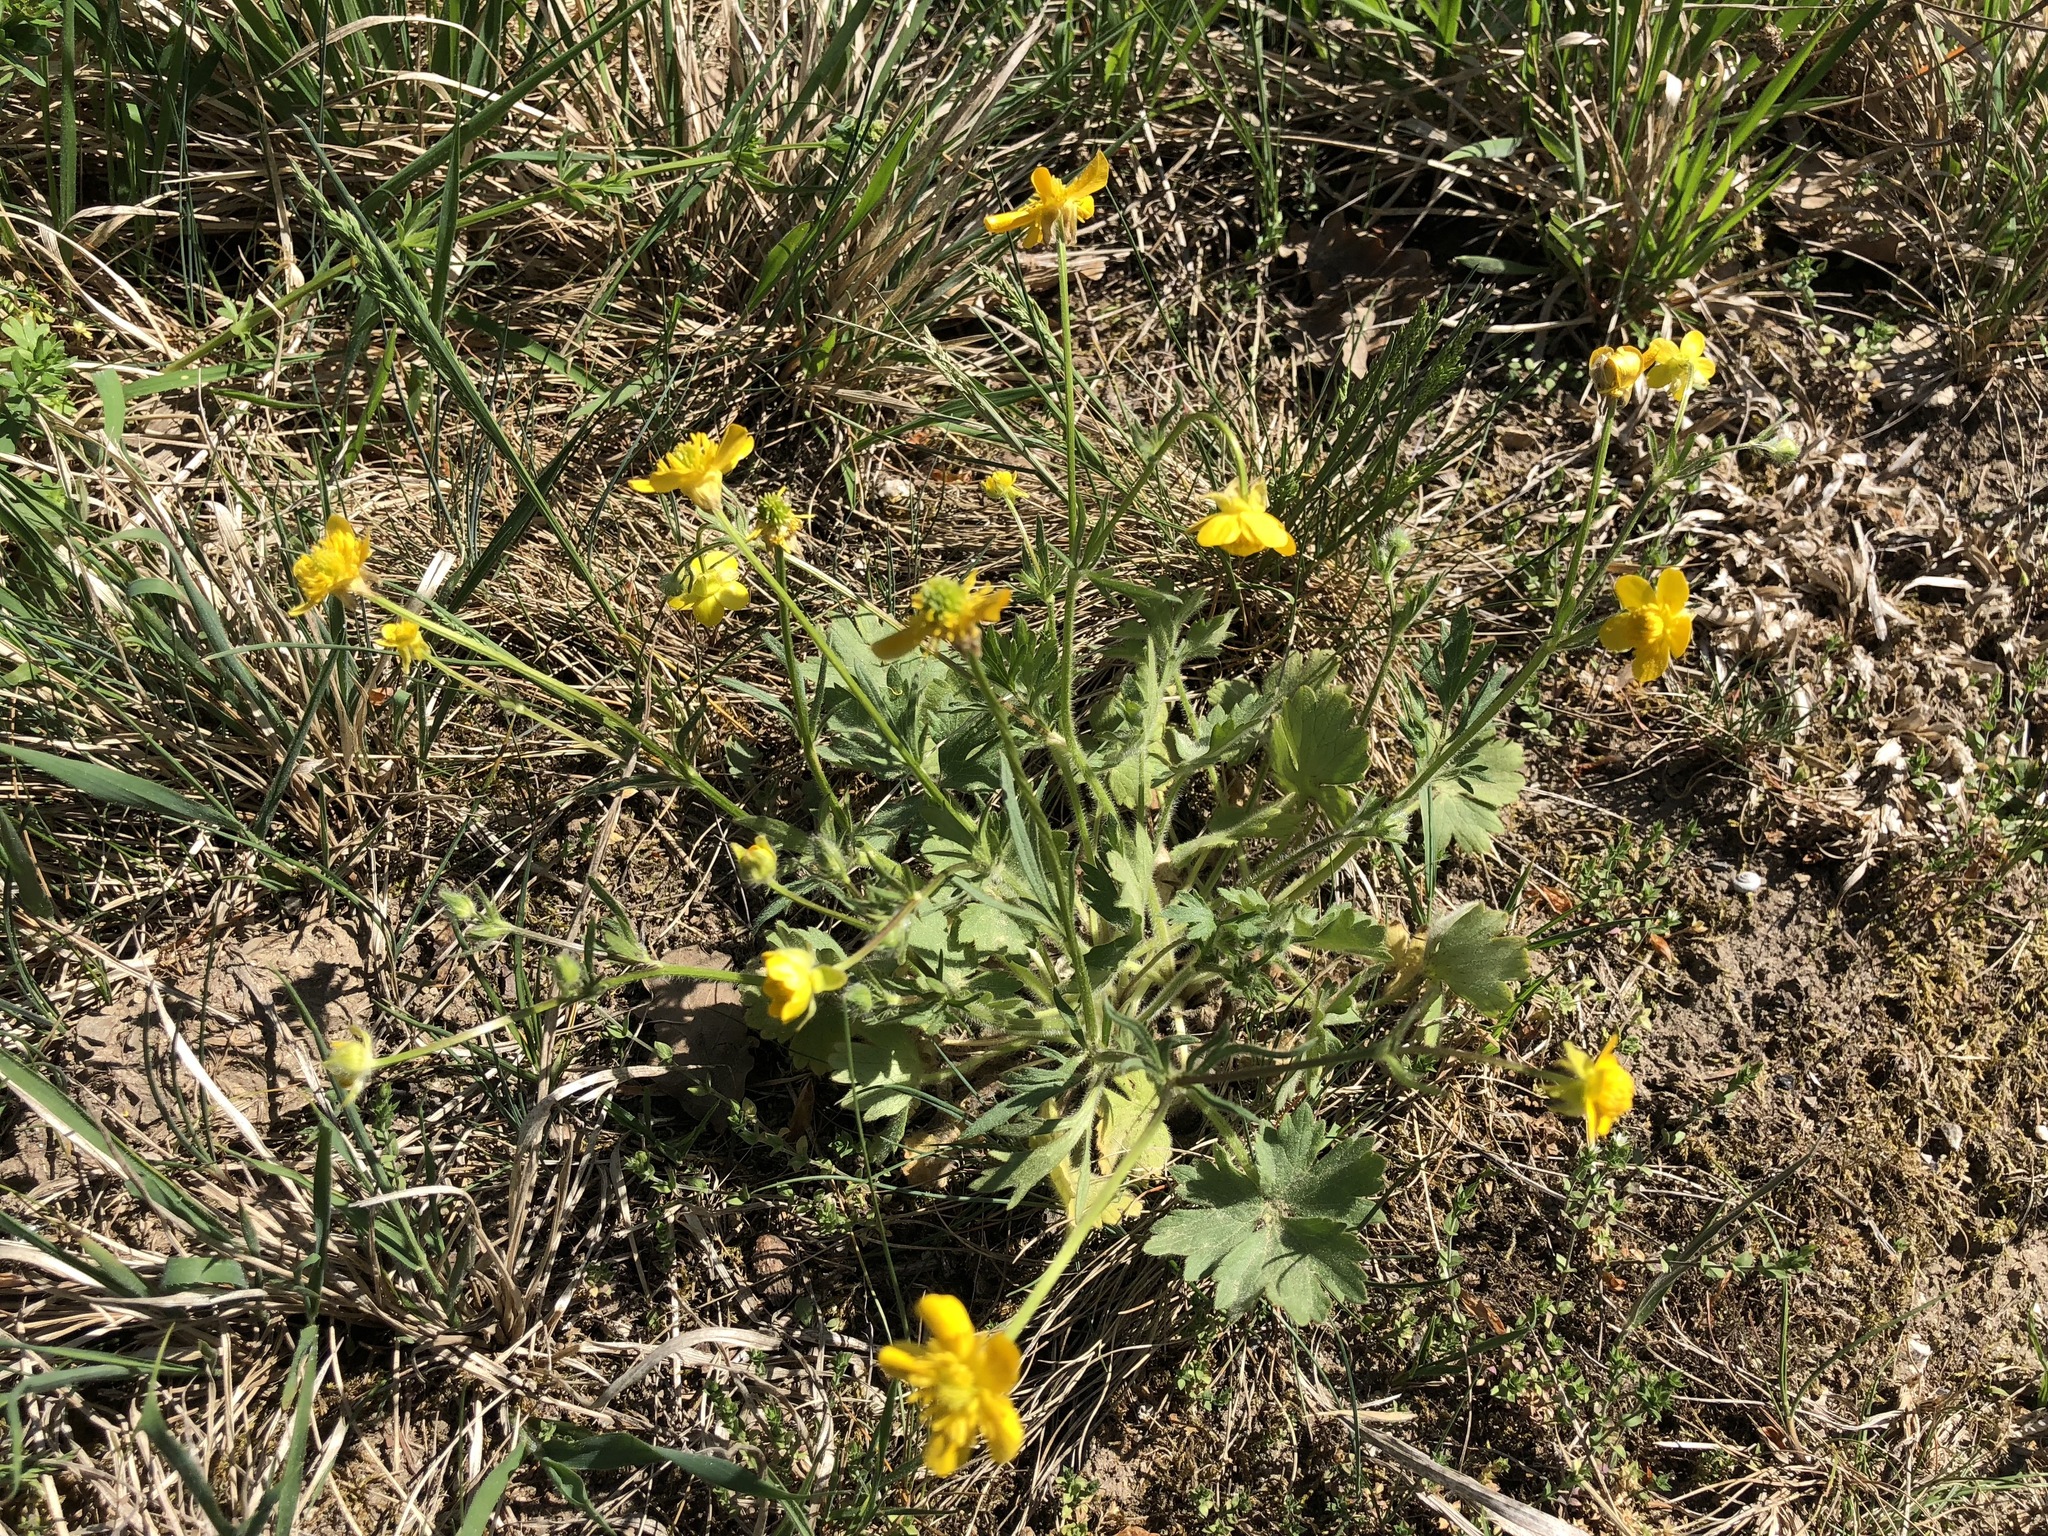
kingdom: Plantae
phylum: Tracheophyta
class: Magnoliopsida
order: Ranunculales
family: Ranunculaceae
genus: Ranunculus
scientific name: Ranunculus bulbosus
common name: Bulbous buttercup
